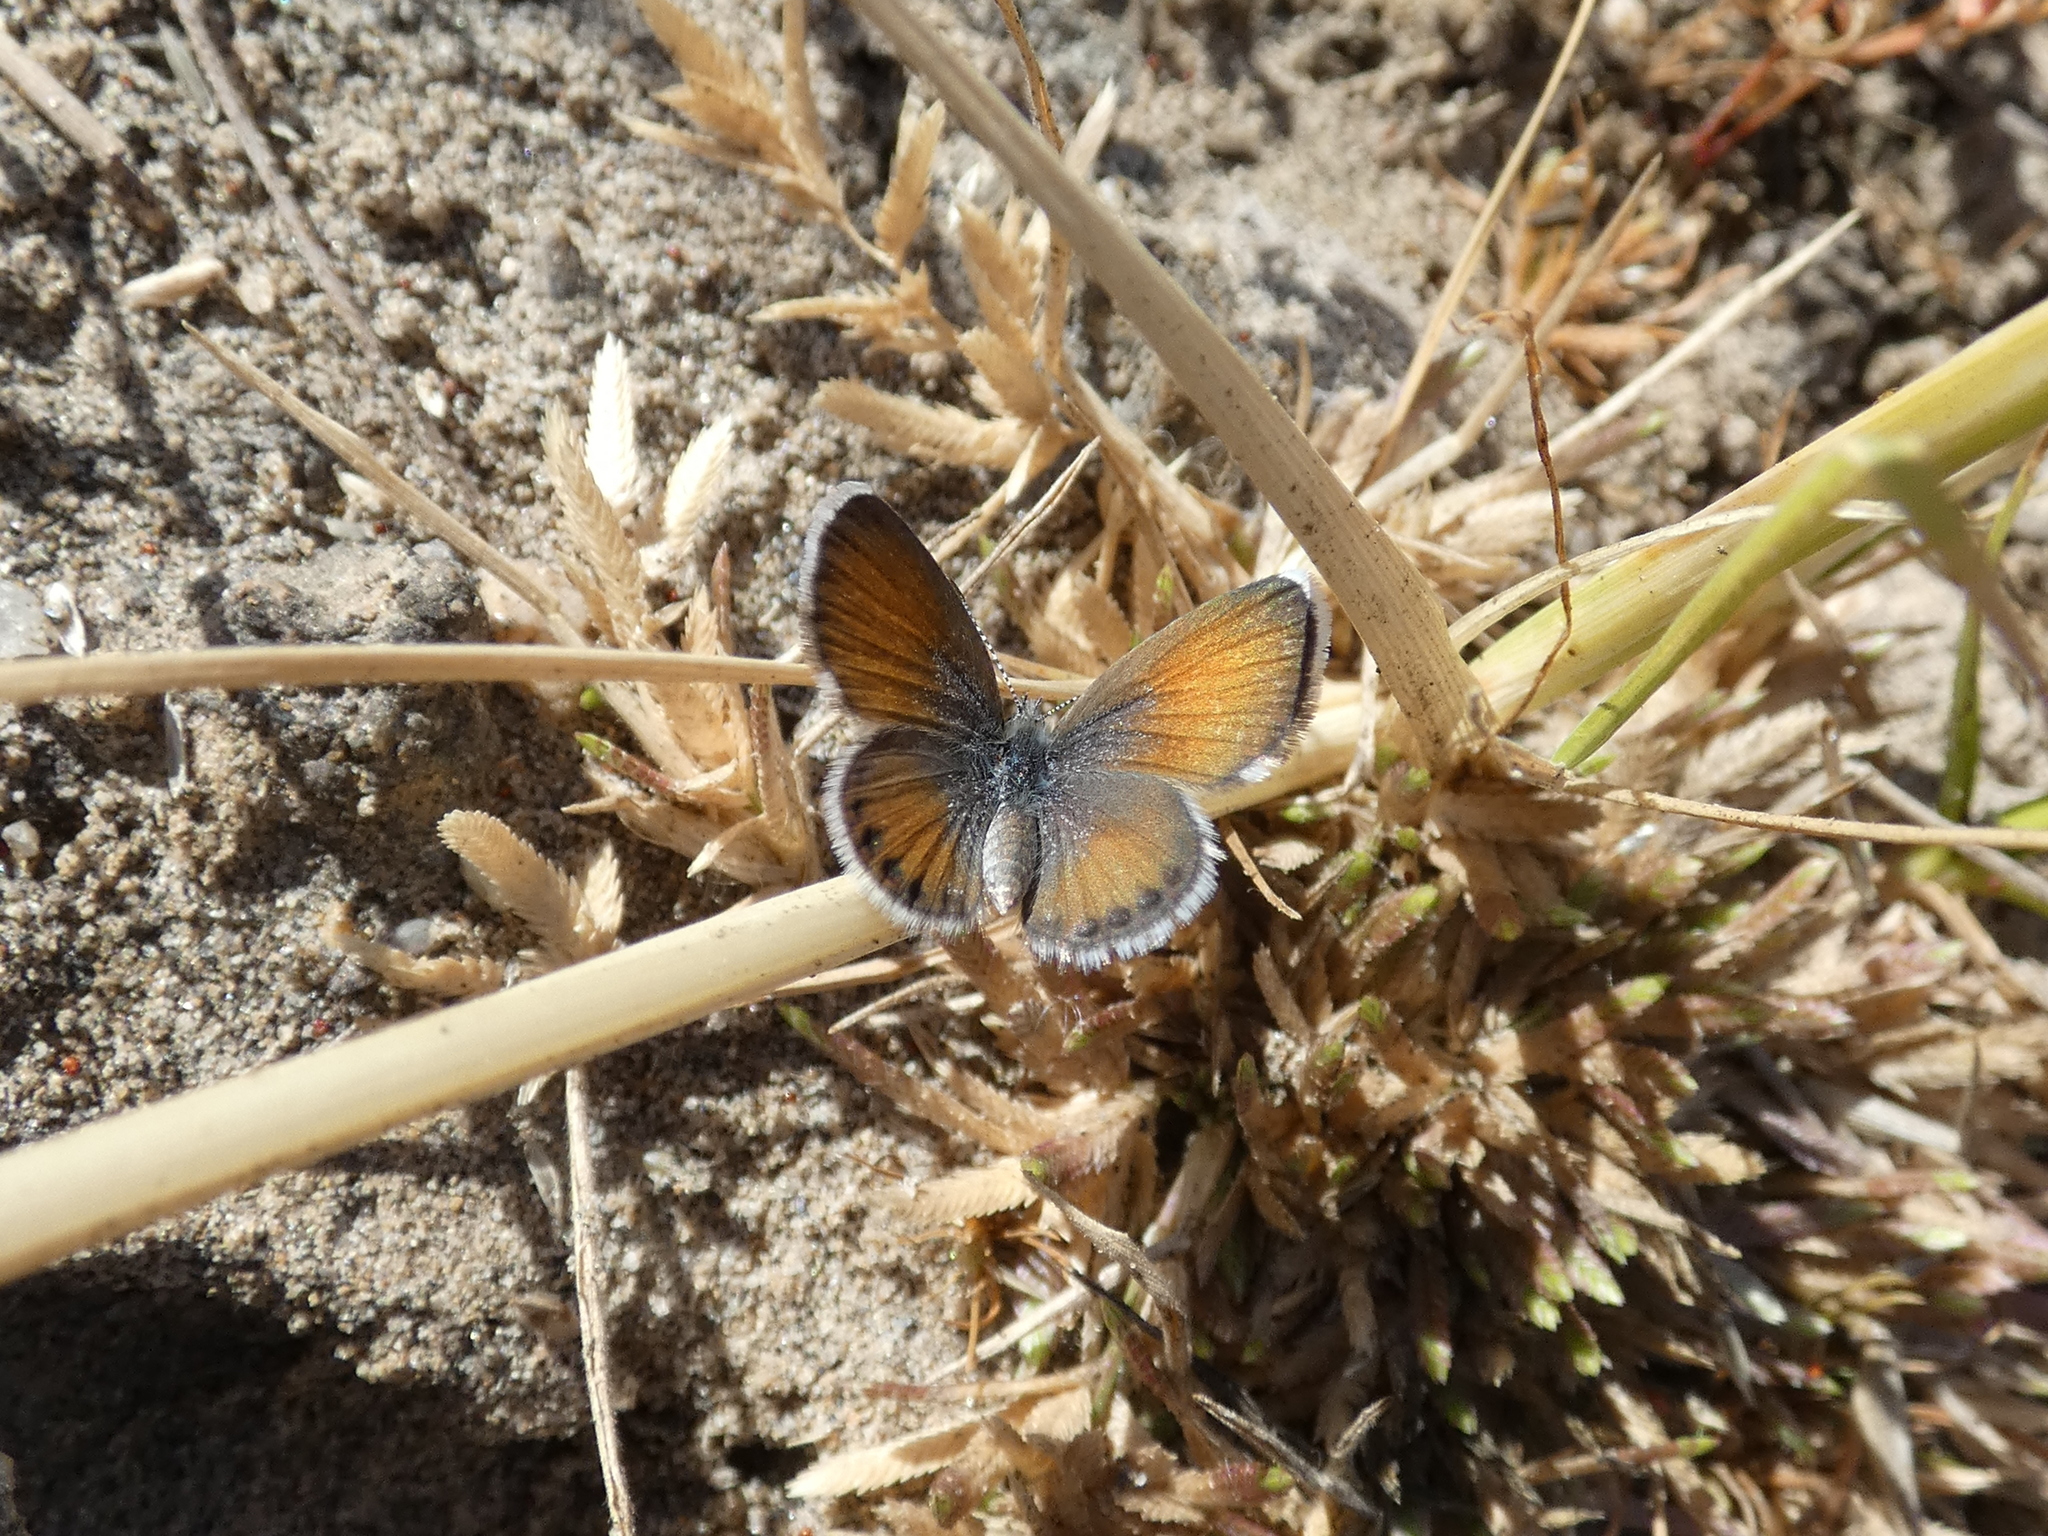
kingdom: Animalia
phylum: Arthropoda
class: Insecta
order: Lepidoptera
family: Lycaenidae
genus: Brephidium
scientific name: Brephidium exilis
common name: Pygmy blue
